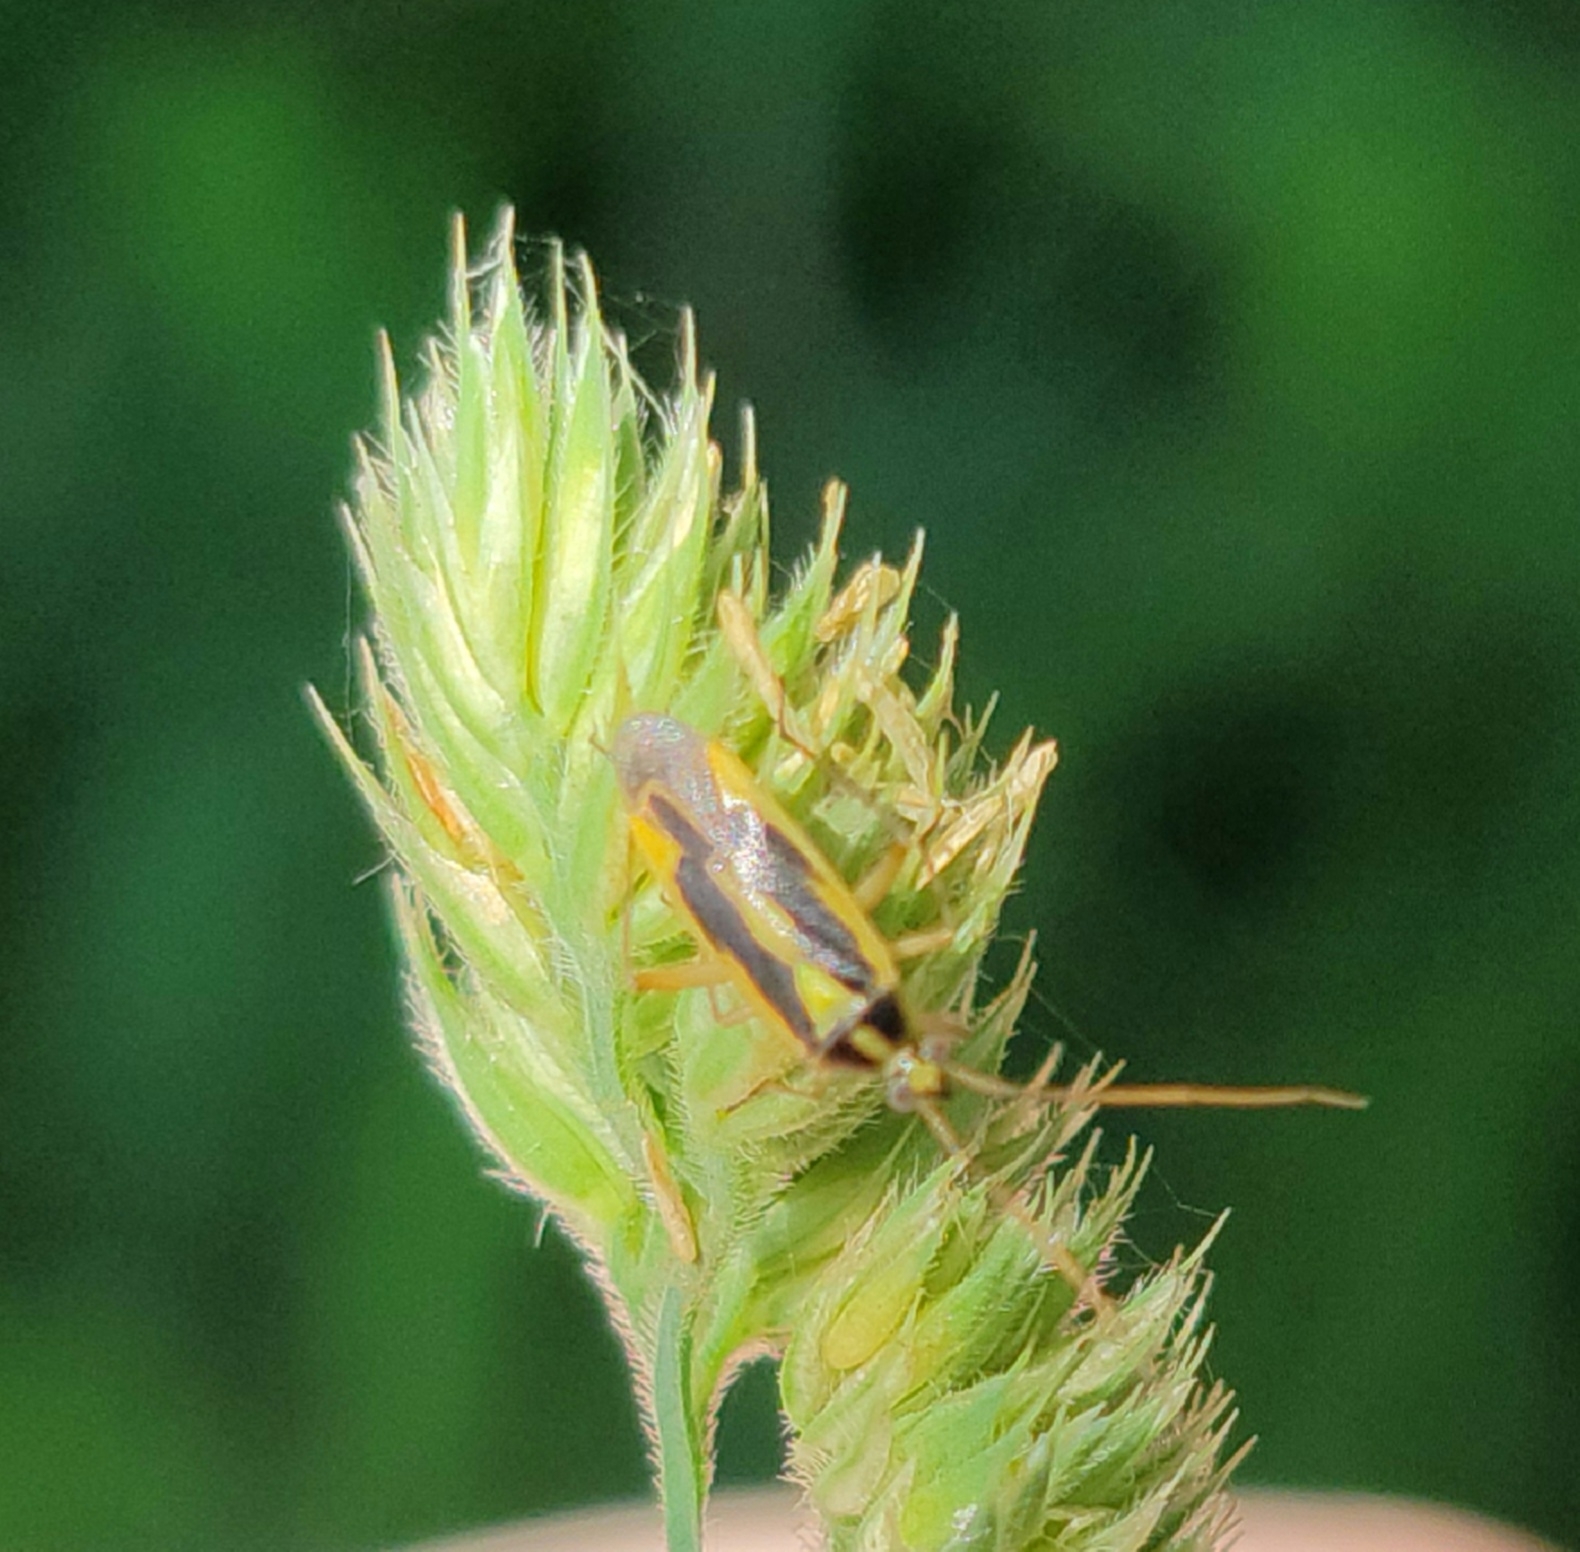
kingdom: Animalia
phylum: Arthropoda
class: Insecta
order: Hemiptera
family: Miridae
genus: Stenotus
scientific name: Stenotus binotatus
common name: Plant bug
